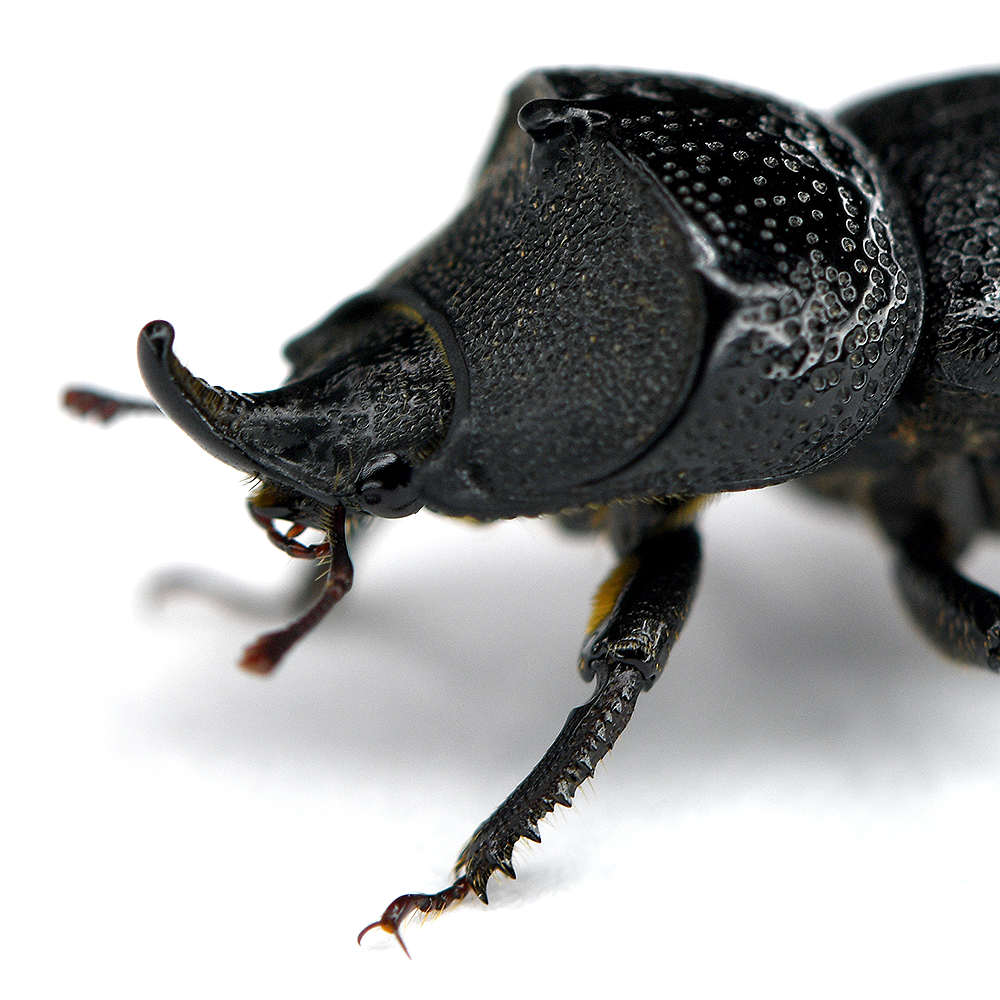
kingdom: Animalia
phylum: Arthropoda
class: Insecta
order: Coleoptera
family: Lucanidae
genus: Sinodendron
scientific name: Sinodendron rugosum
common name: Rugose stag beelte
